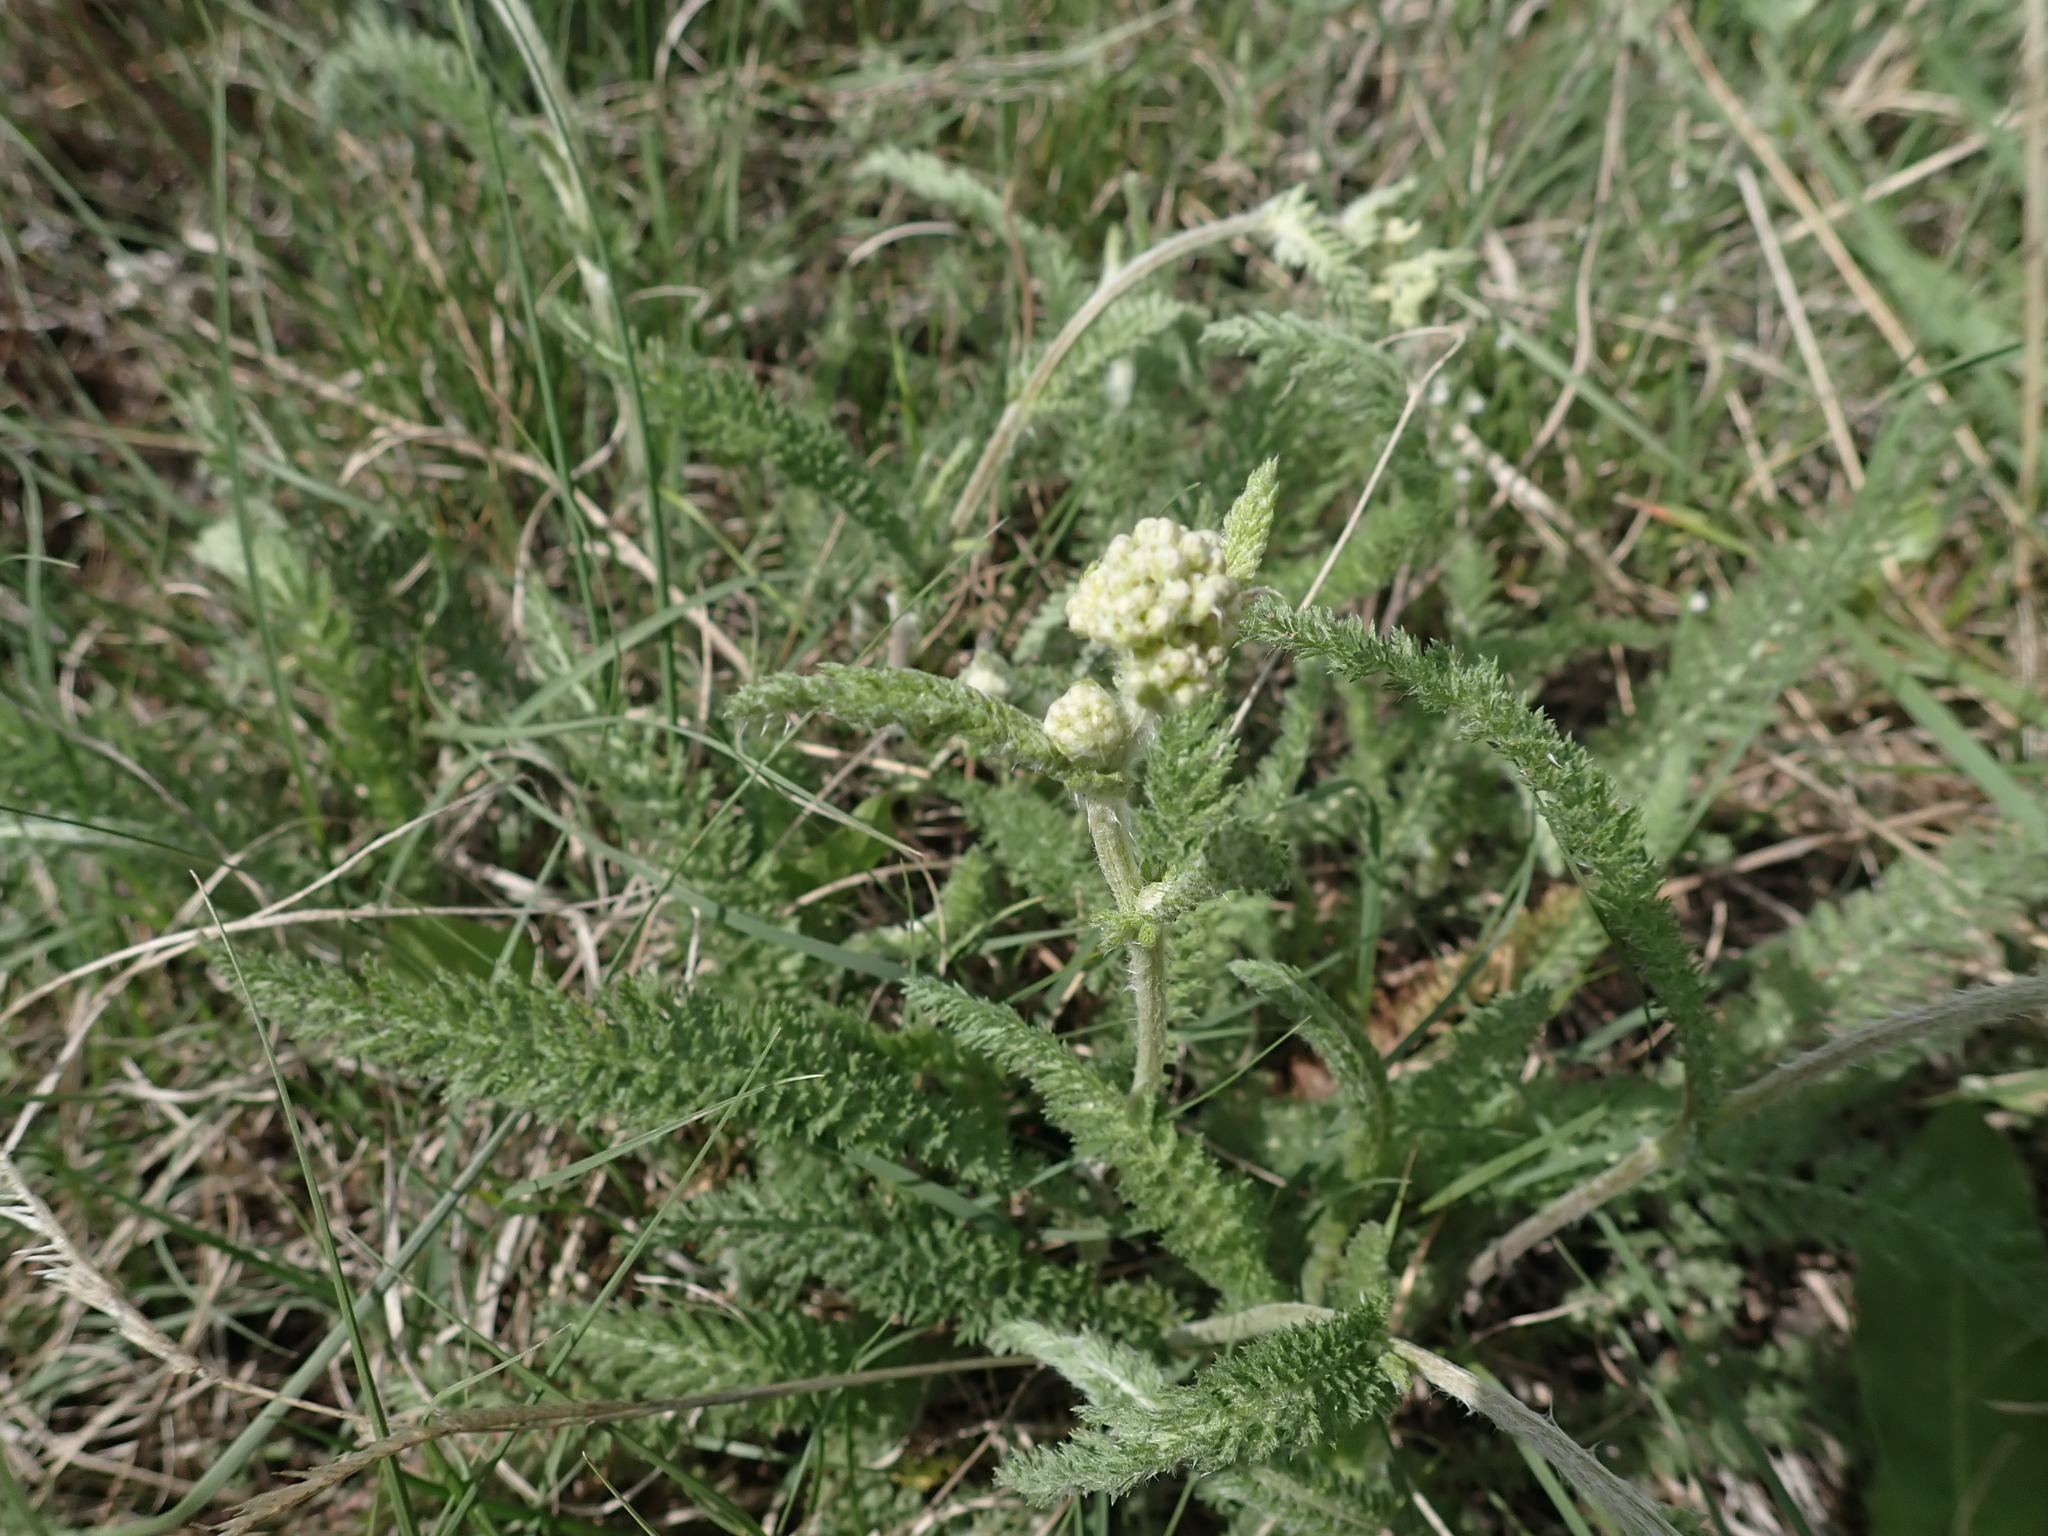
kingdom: Plantae
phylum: Tracheophyta
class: Magnoliopsida
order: Asterales
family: Asteraceae
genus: Achillea
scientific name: Achillea millefolium
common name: Yarrow
